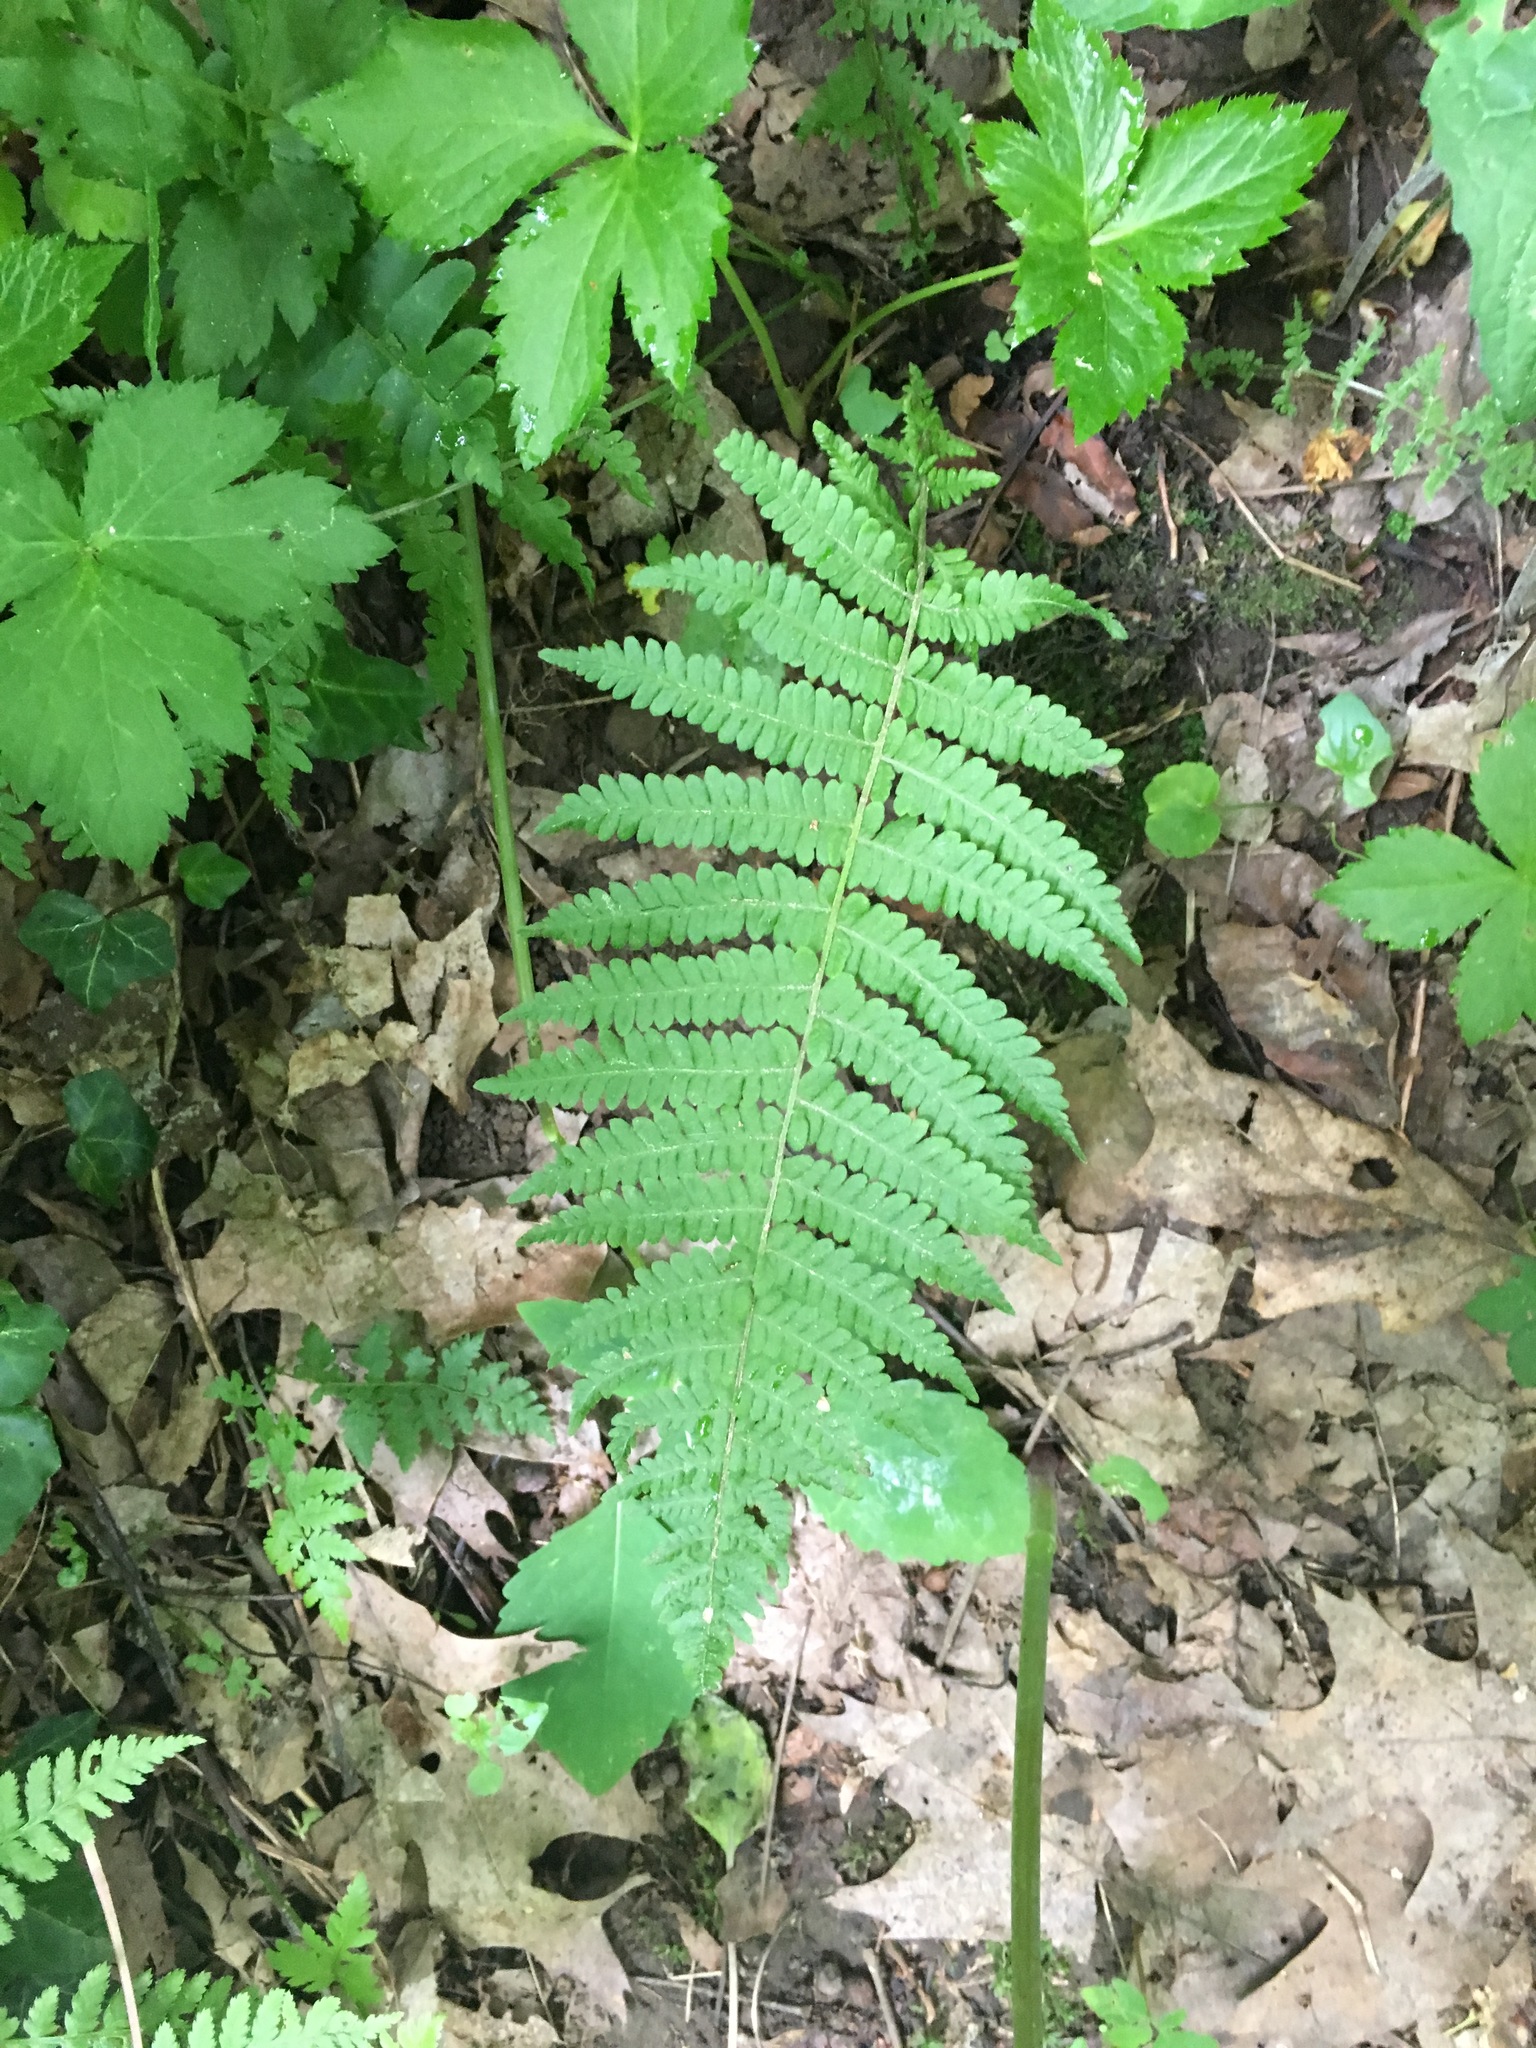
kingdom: Plantae
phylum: Tracheophyta
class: Polypodiopsida
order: Polypodiales
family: Thelypteridaceae
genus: Amauropelta
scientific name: Amauropelta noveboracensis
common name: New york fern
